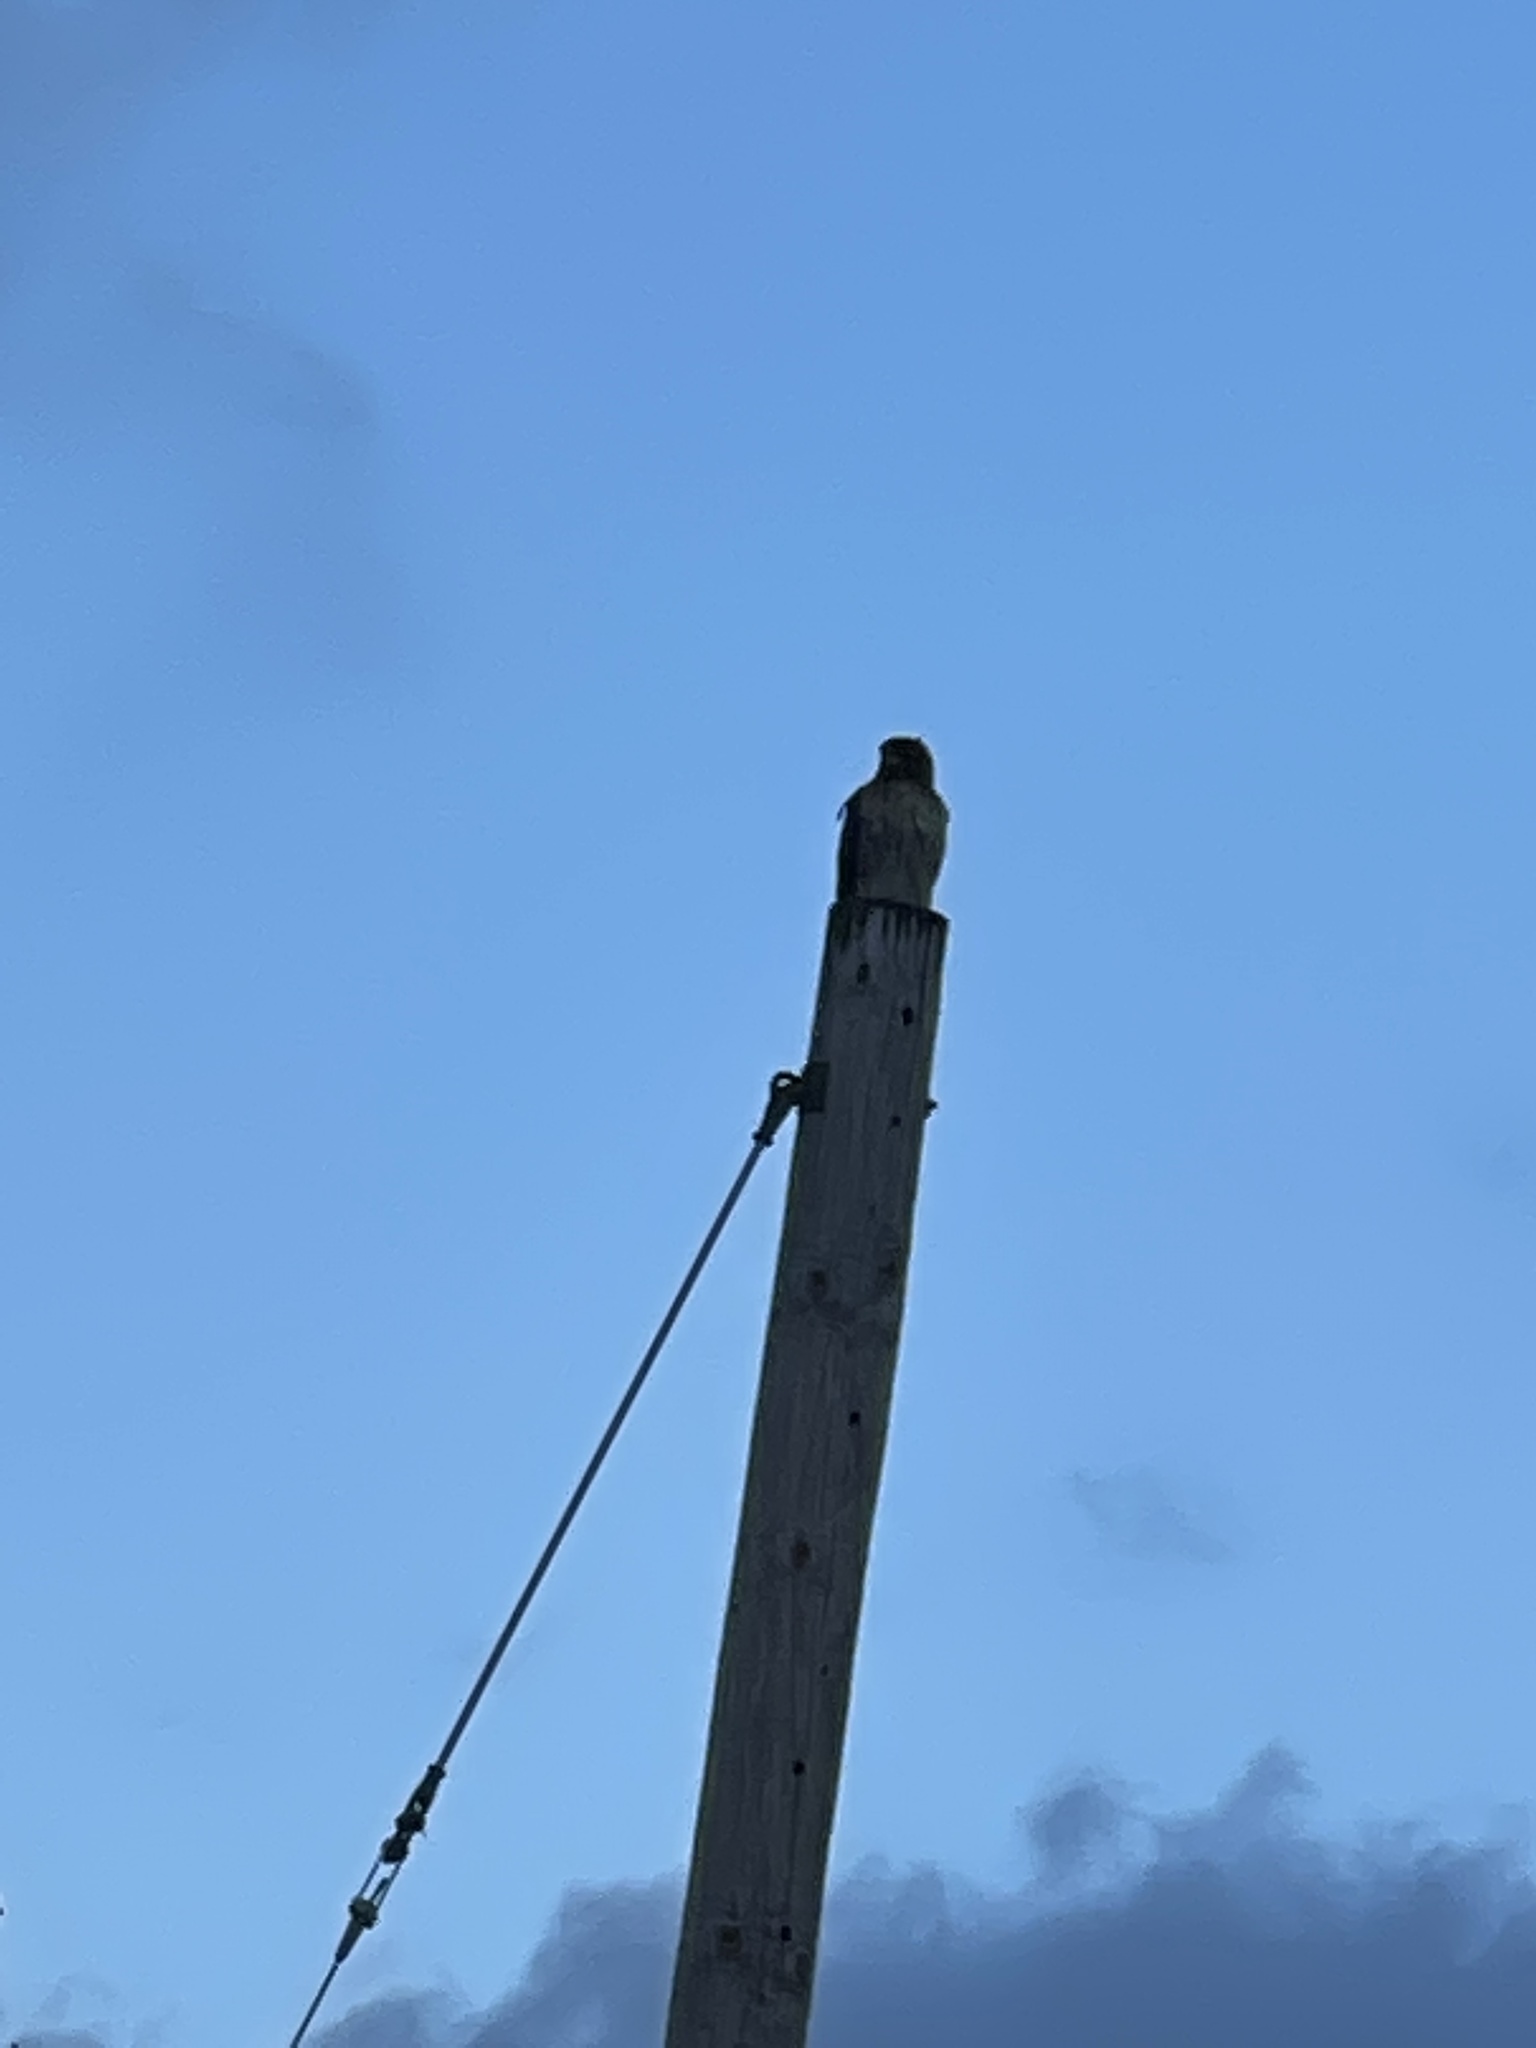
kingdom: Animalia
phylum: Chordata
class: Aves
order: Accipitriformes
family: Accipitridae
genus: Buteo
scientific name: Buteo jamaicensis
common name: Red-tailed hawk
